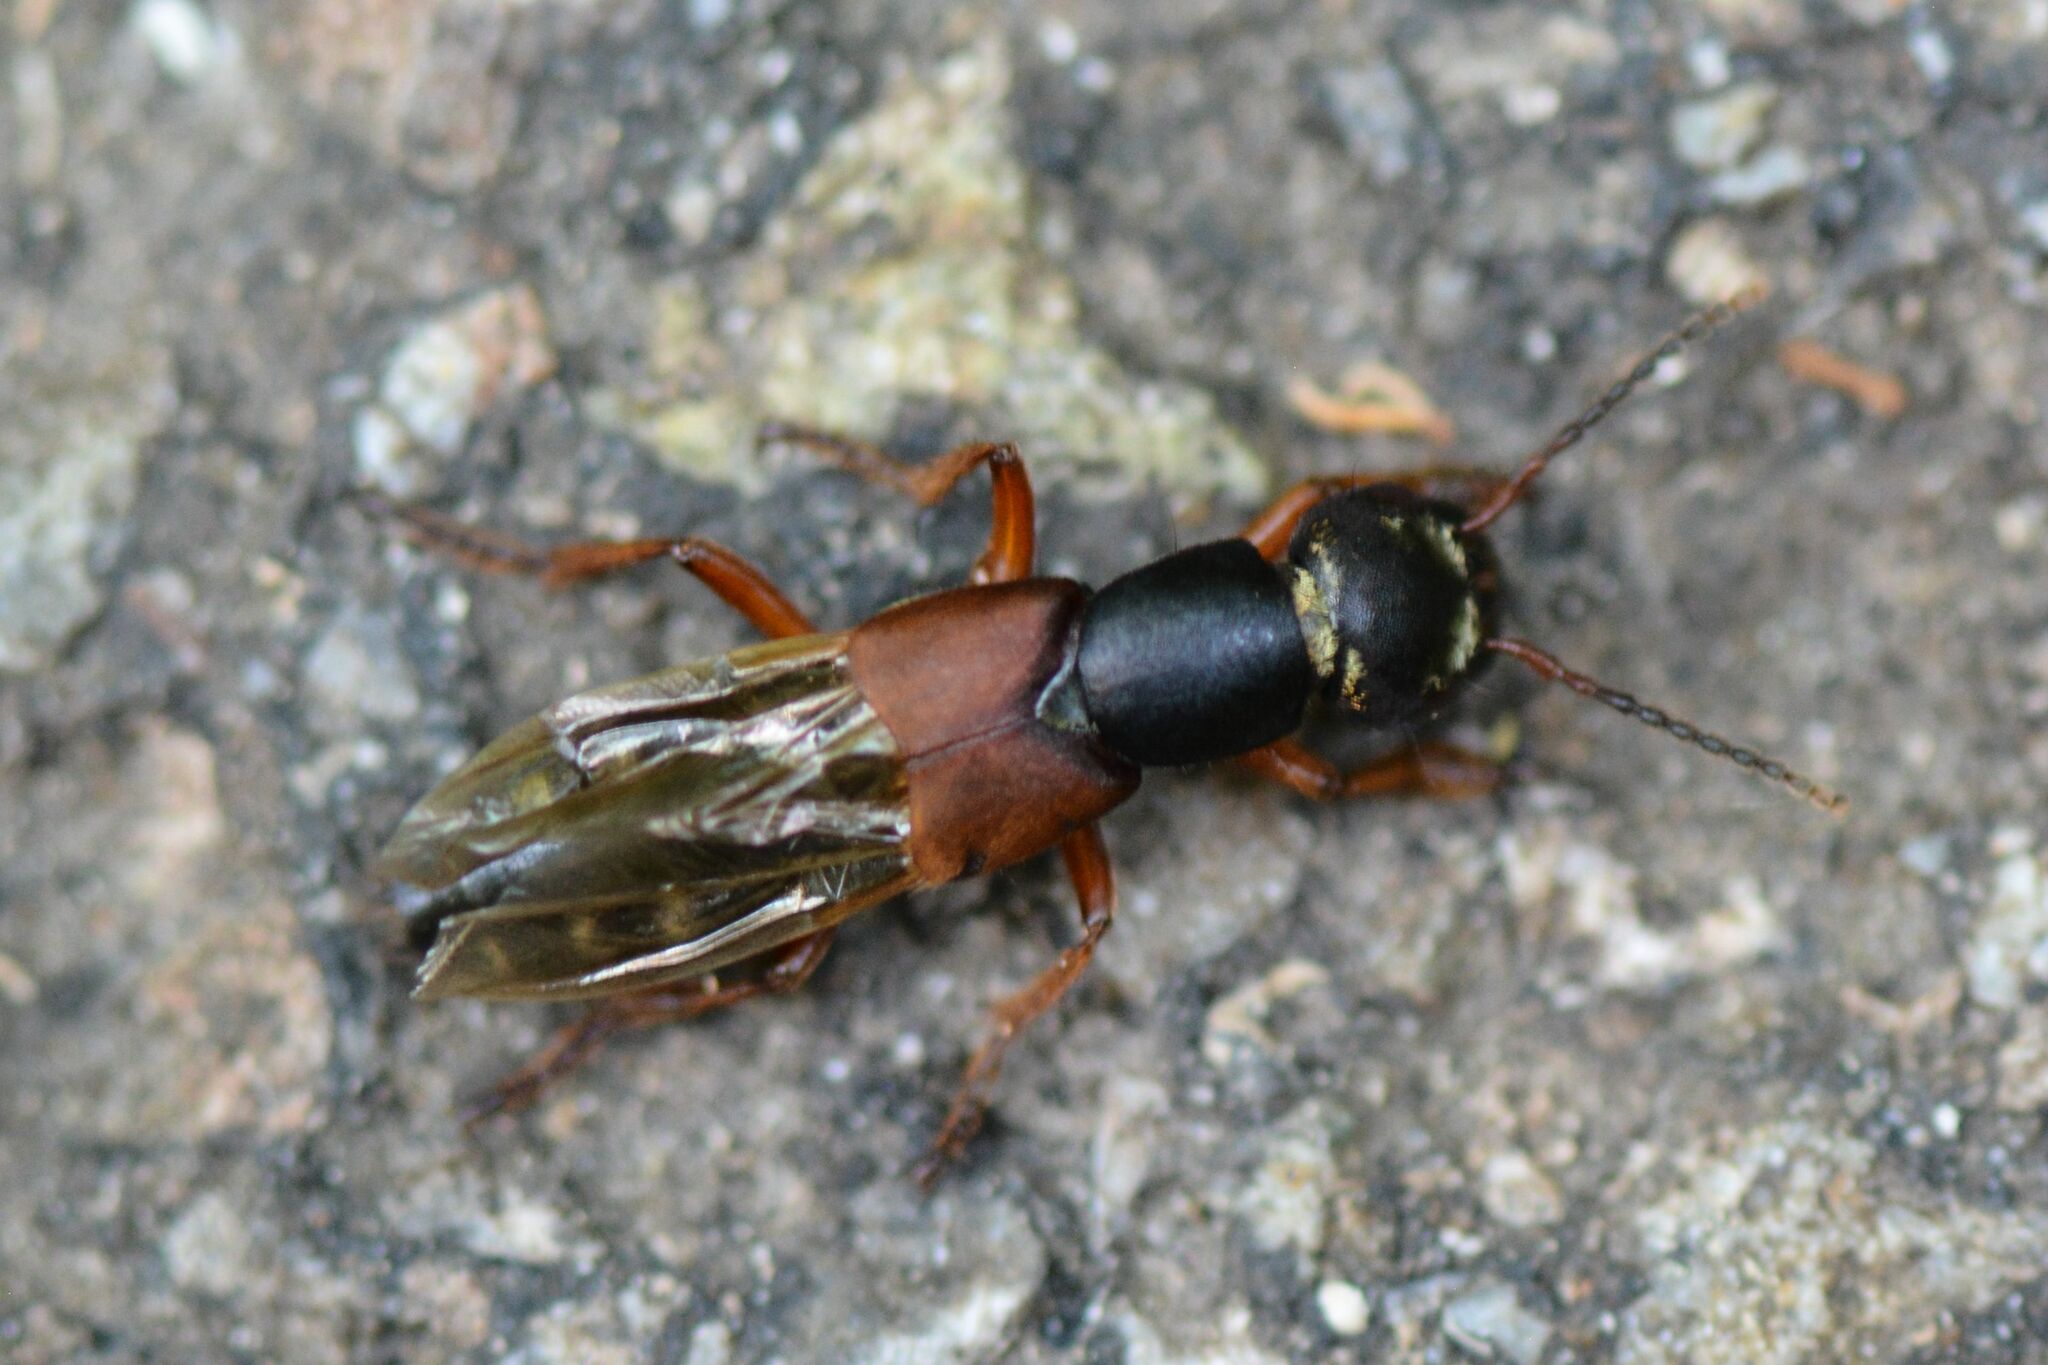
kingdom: Animalia
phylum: Arthropoda
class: Insecta
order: Coleoptera
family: Staphylinidae
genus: Staphylinus
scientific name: Staphylinus erythropterus
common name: Staph beetle
